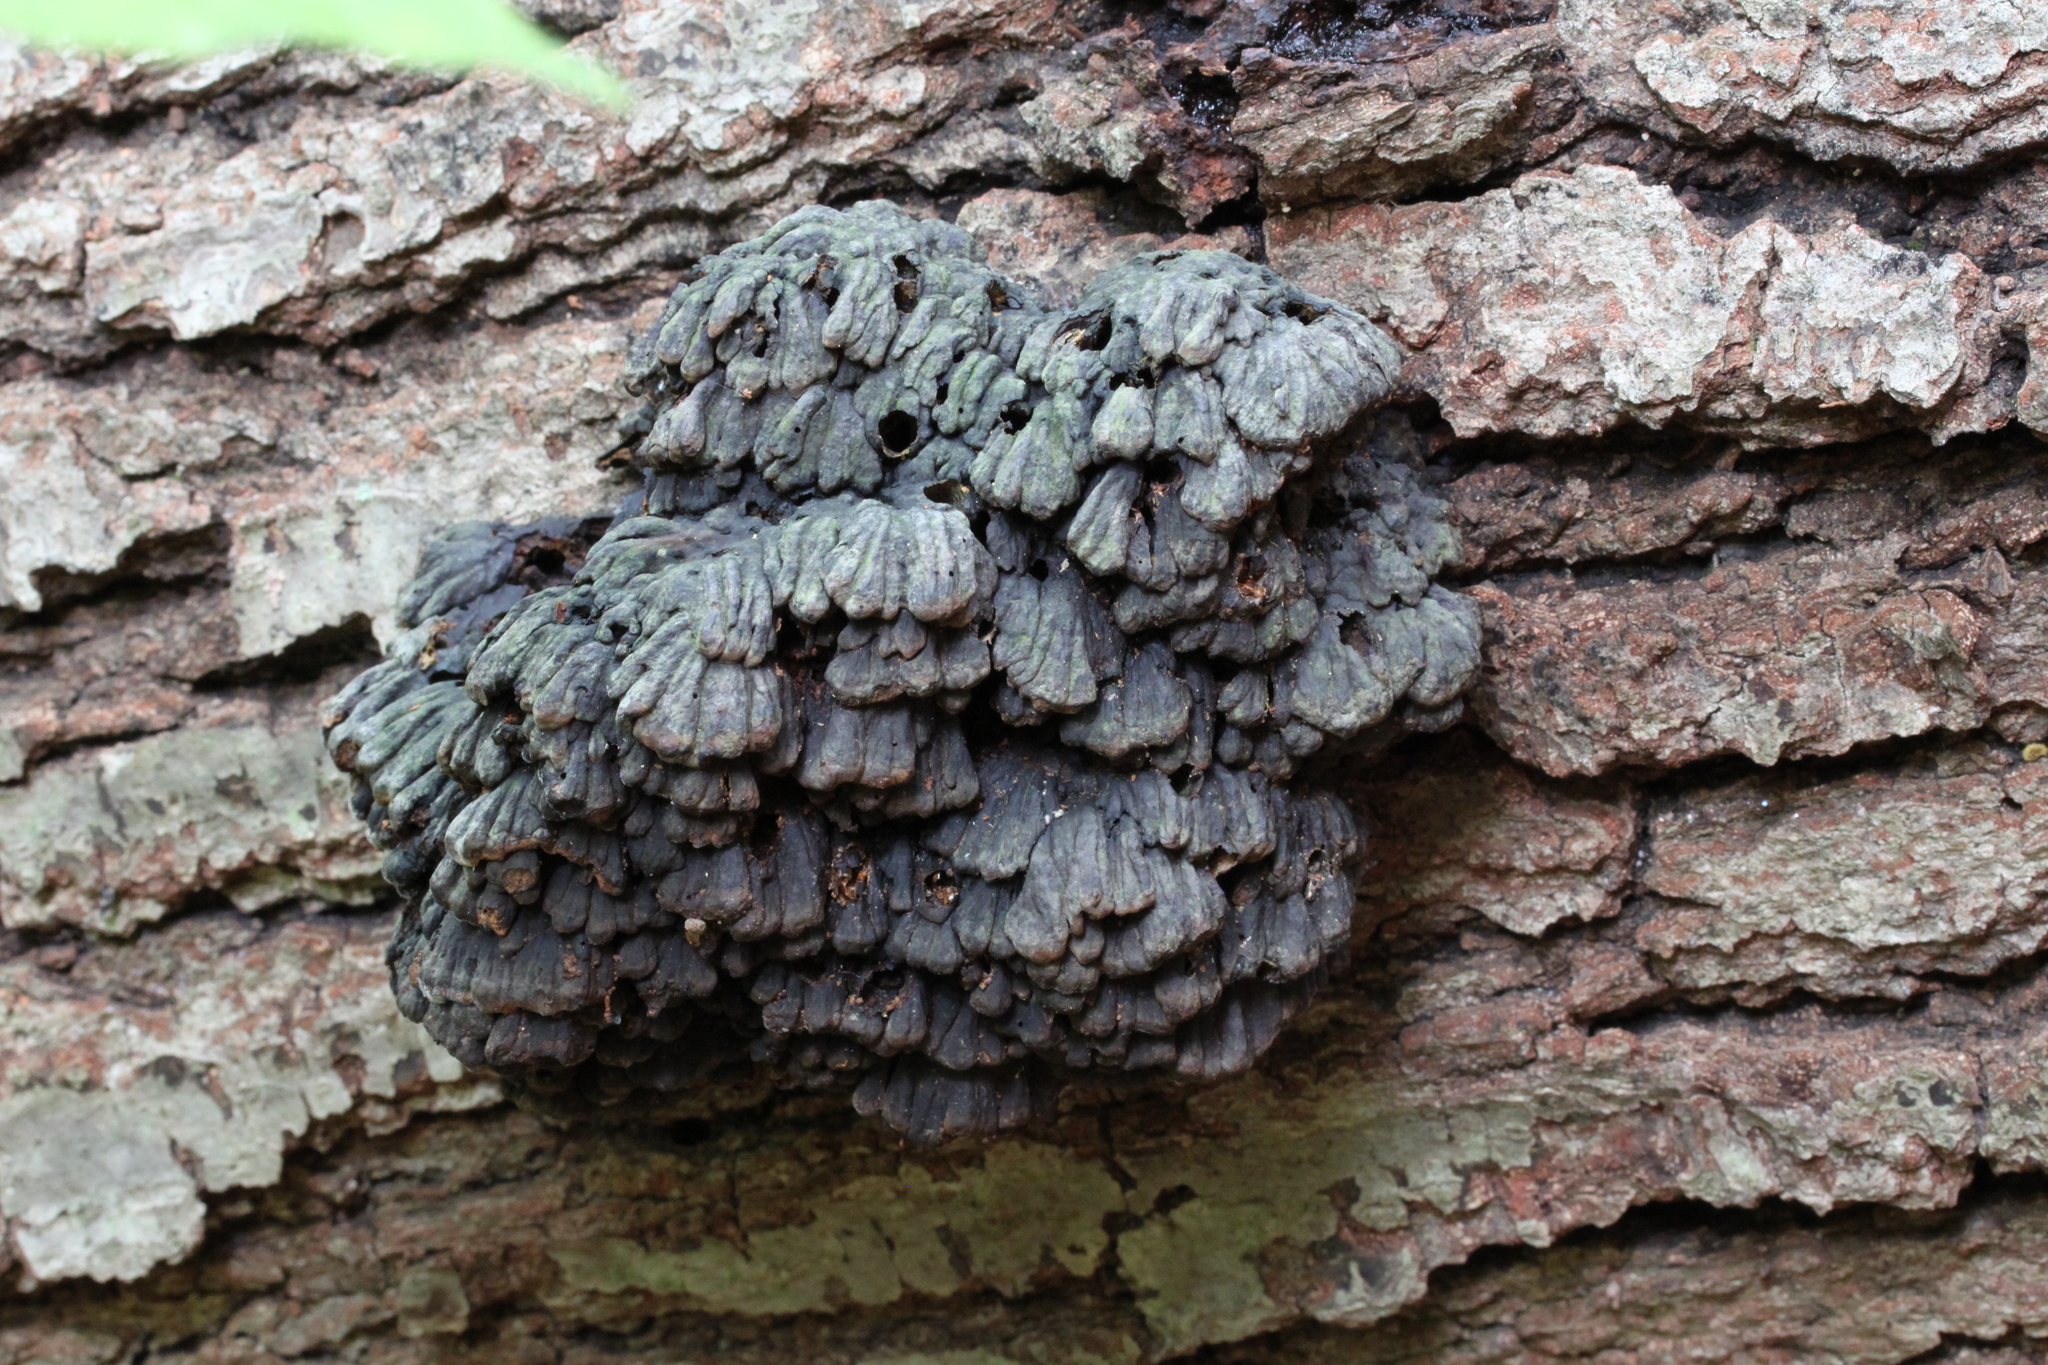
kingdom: Fungi
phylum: Basidiomycota
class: Agaricomycetes
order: Polyporales
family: Polyporaceae
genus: Globifomes
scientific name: Globifomes graveolens
